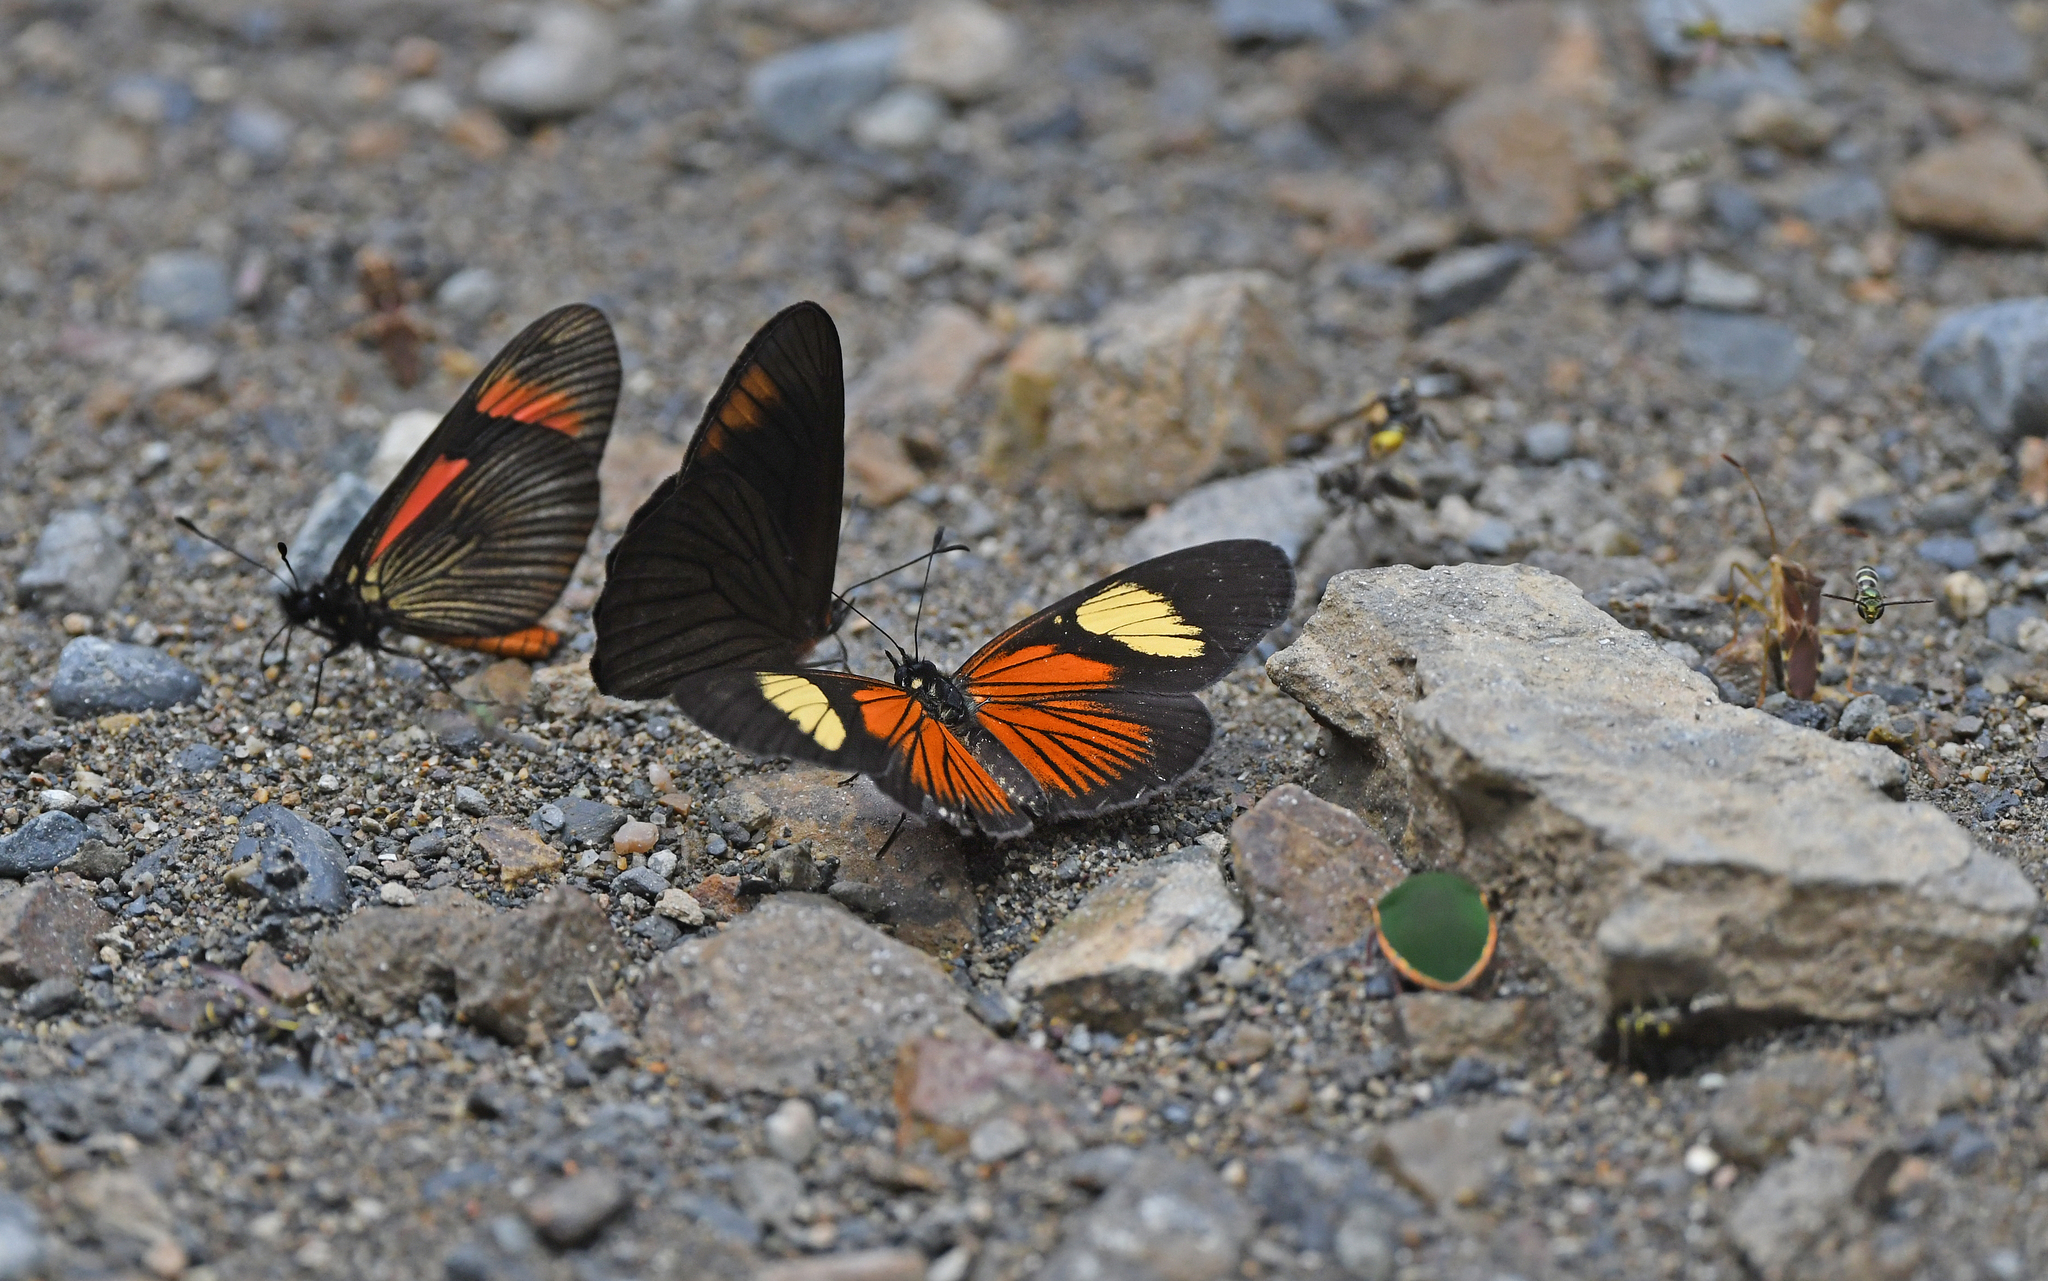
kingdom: Animalia
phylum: Arthropoda
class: Insecta
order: Lepidoptera
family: Nymphalidae
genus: Castilia
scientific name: Castilia perilla
